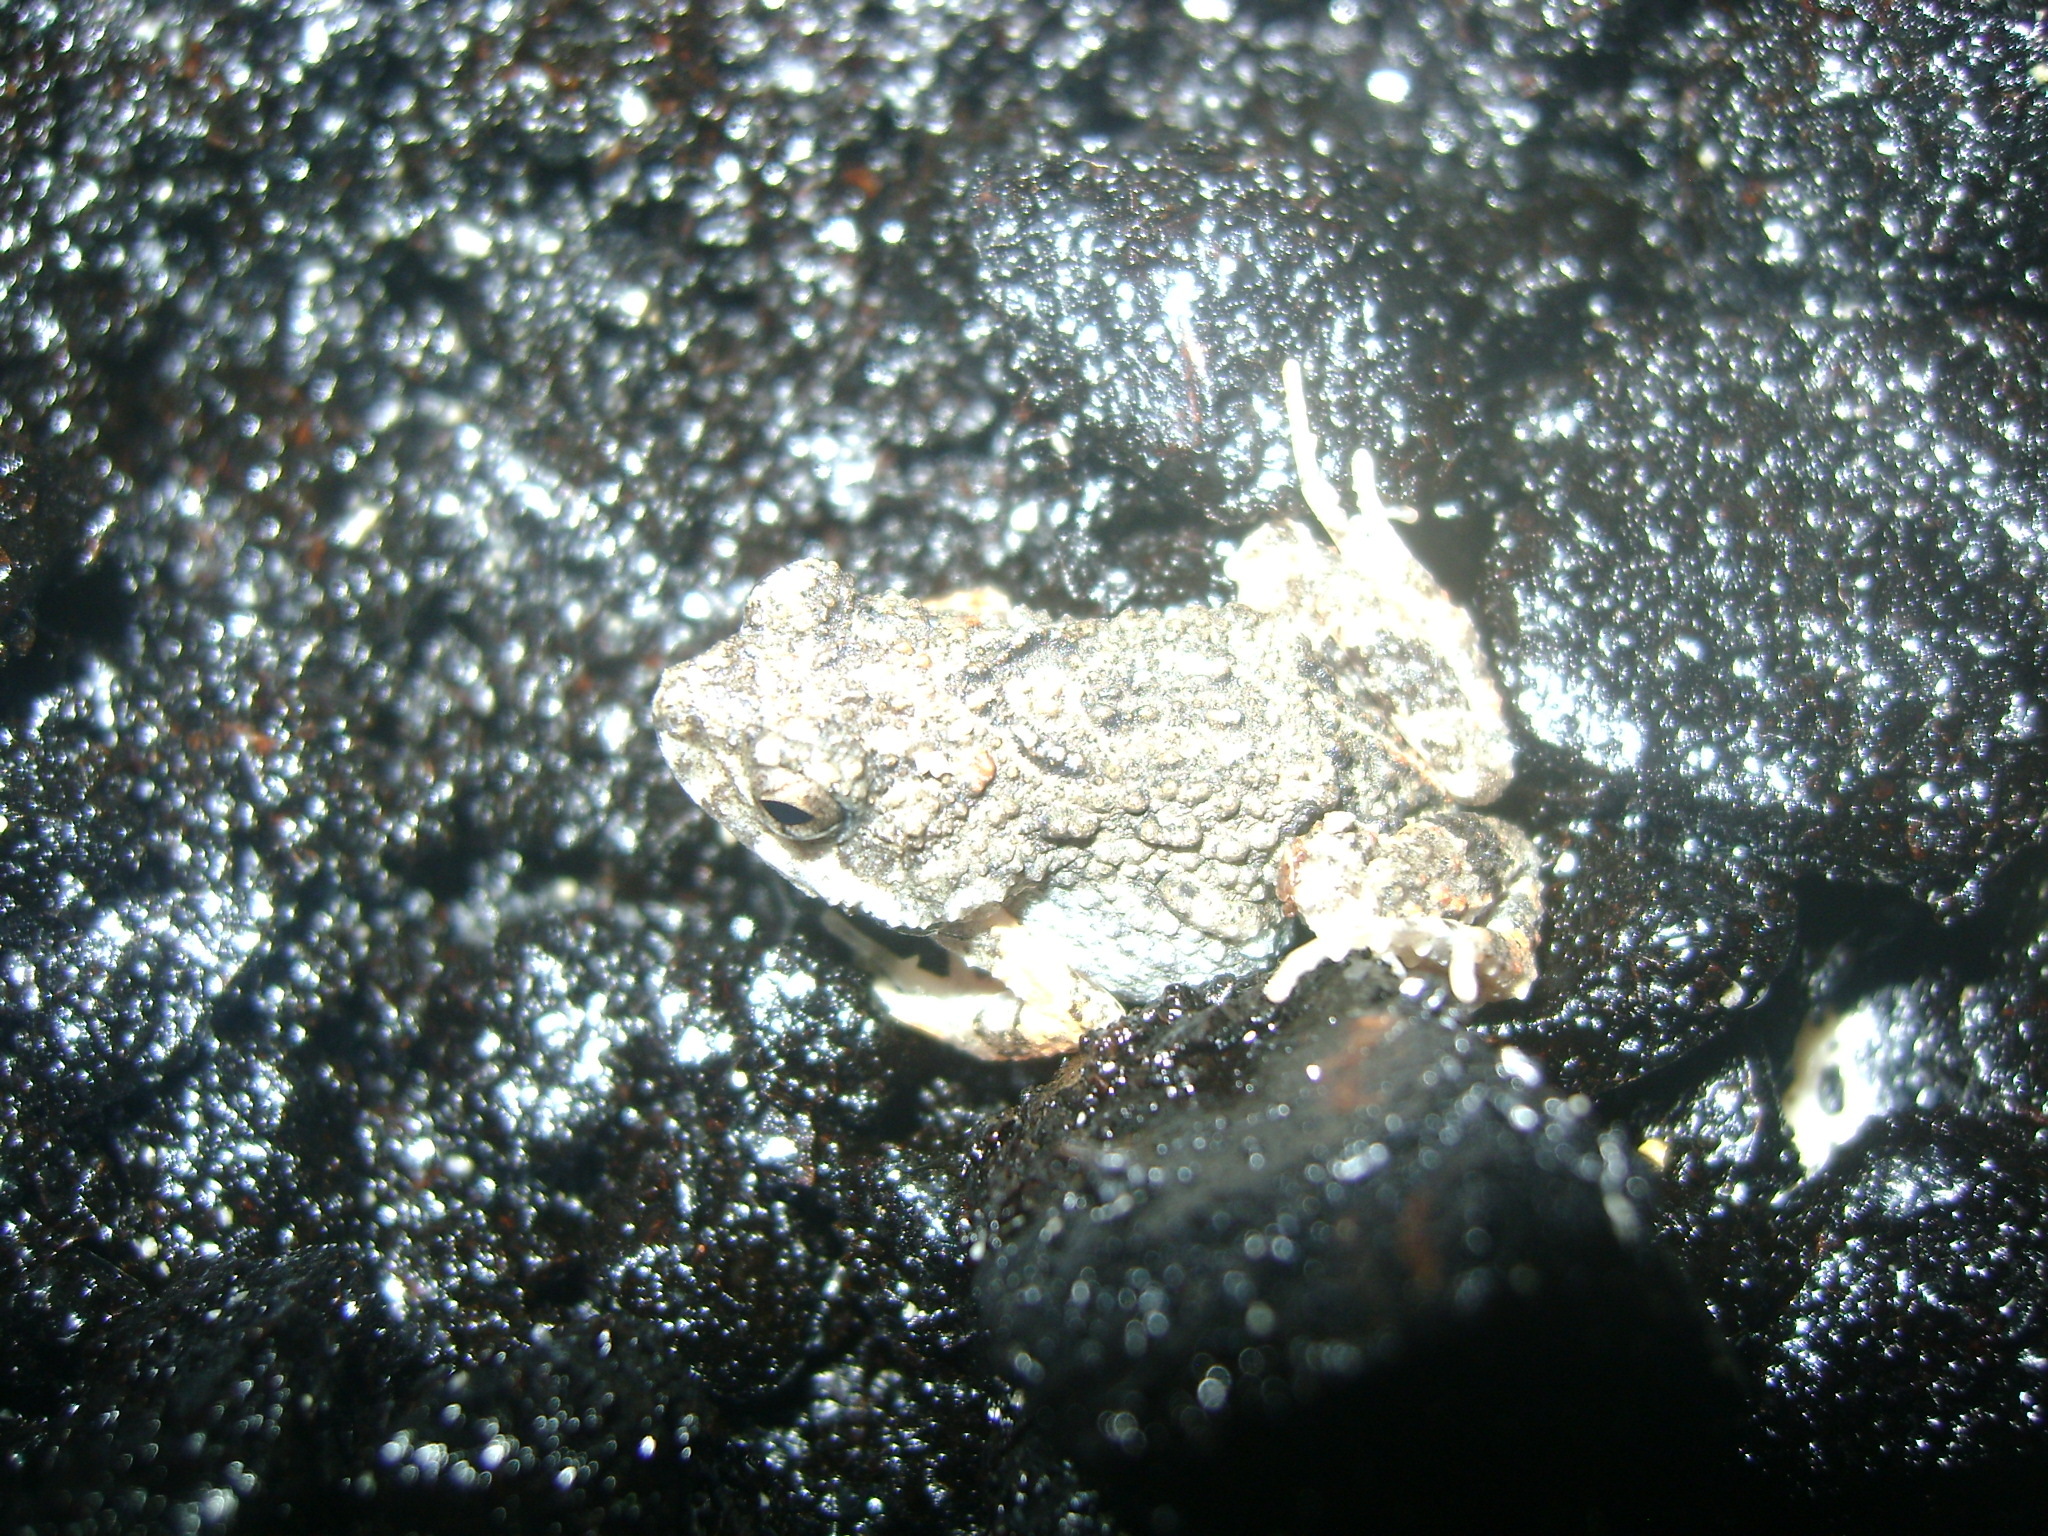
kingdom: Animalia
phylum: Chordata
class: Amphibia
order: Anura
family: Leptodactylidae
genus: Engystomops
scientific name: Engystomops pustulosus
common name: Tungara frog
